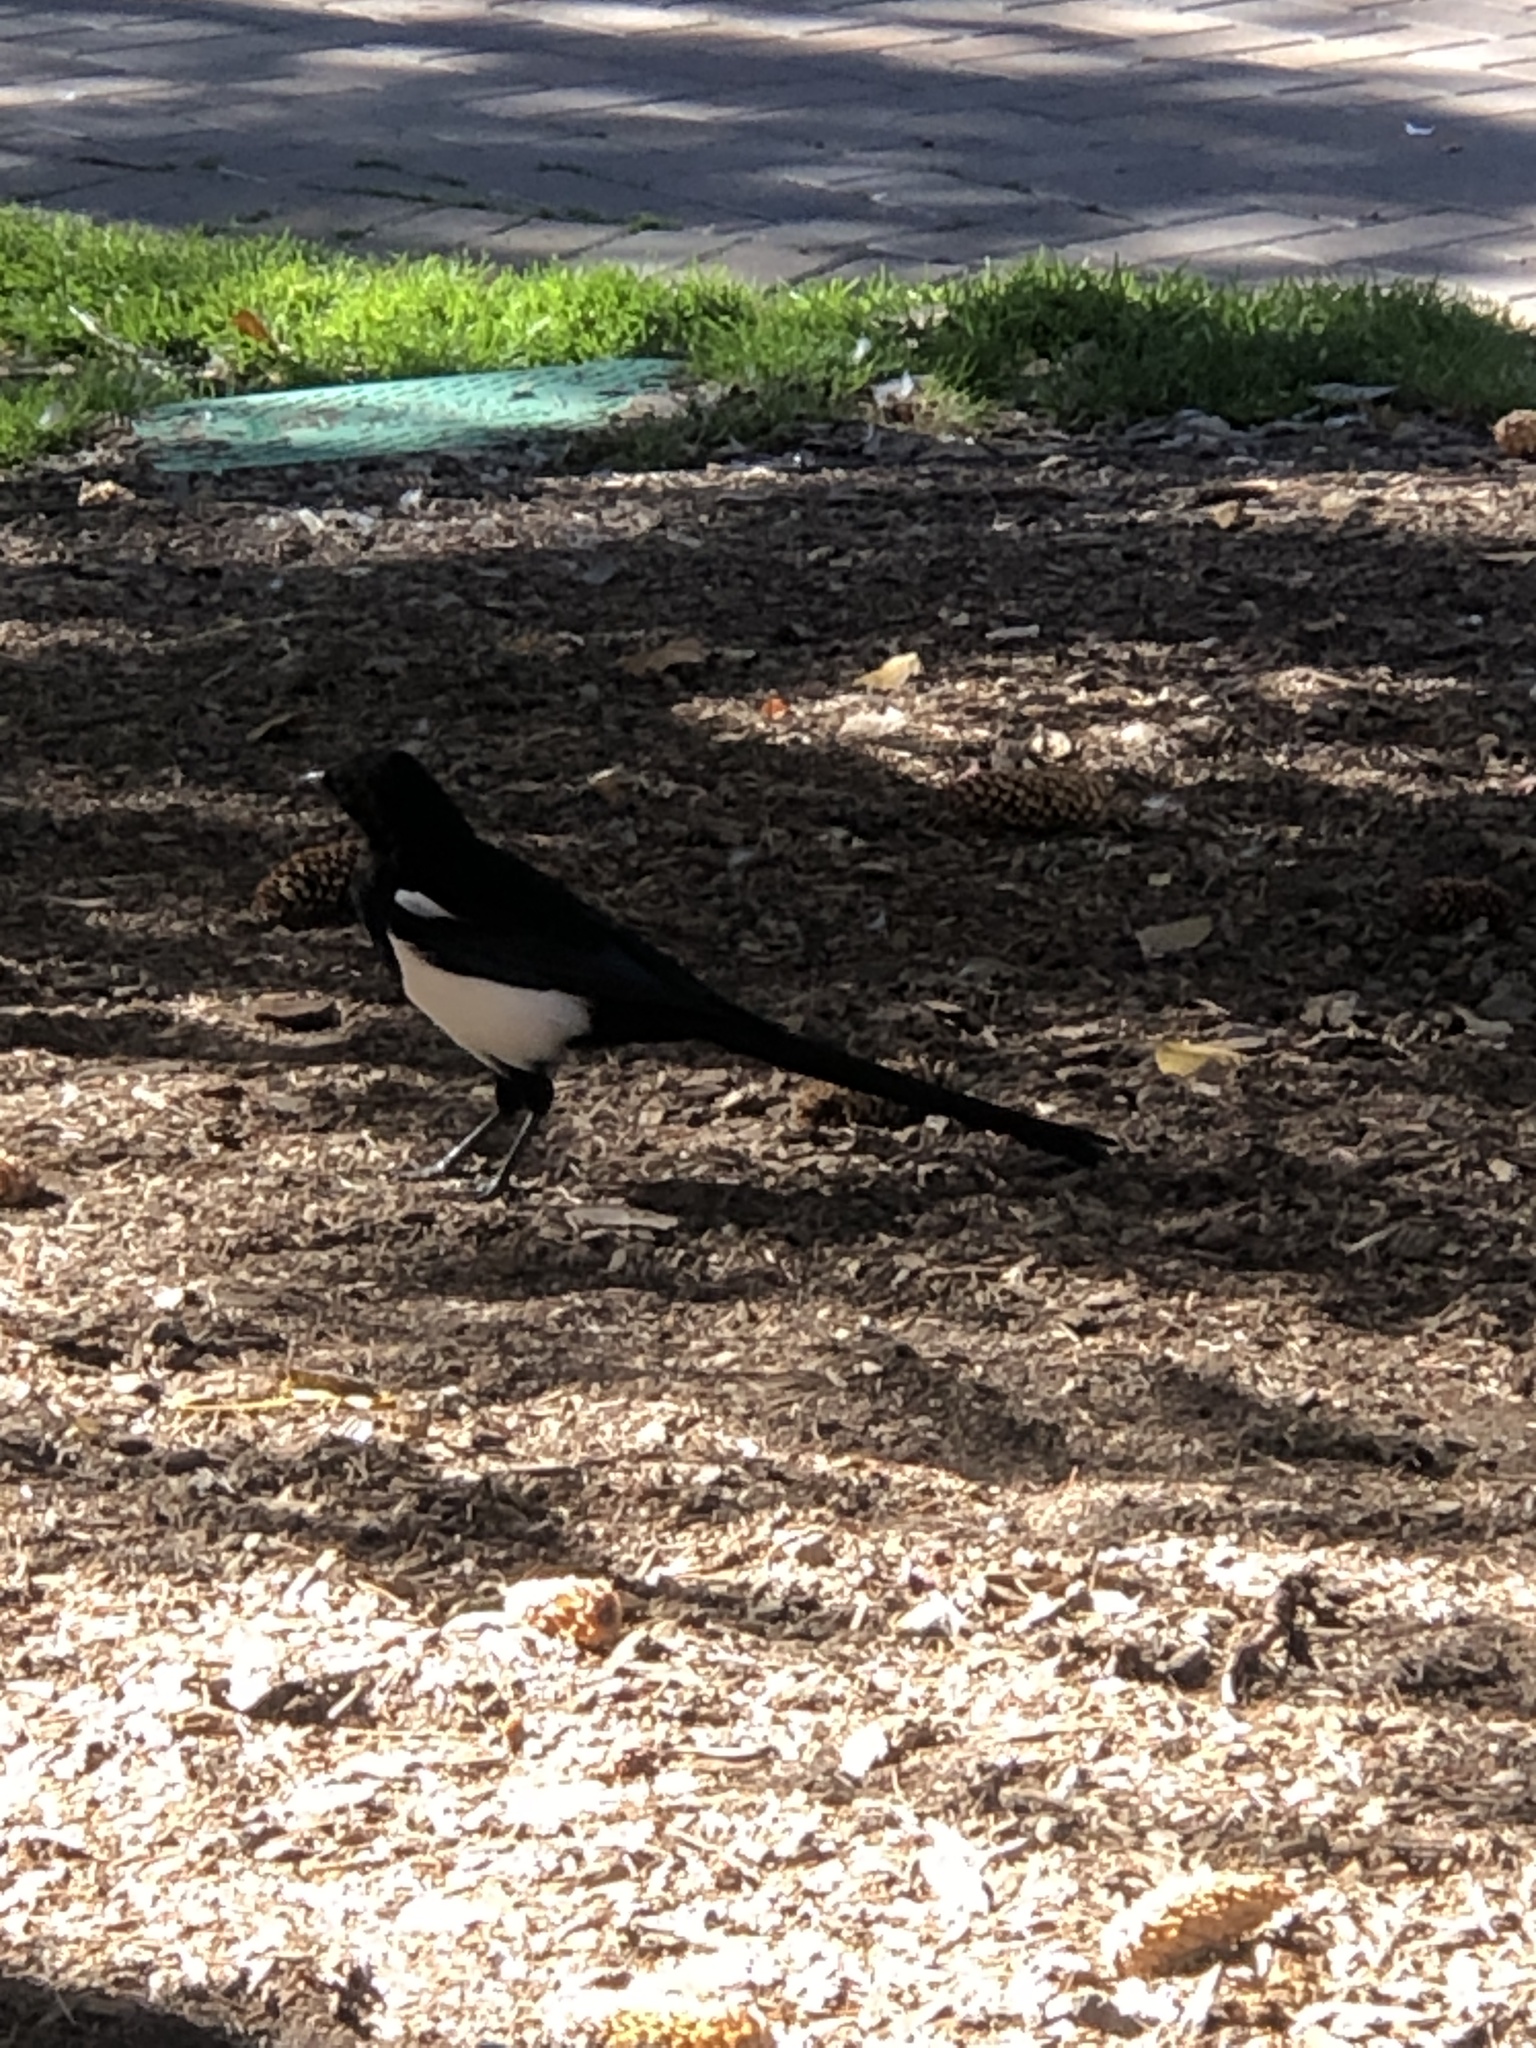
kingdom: Animalia
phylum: Chordata
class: Aves
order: Passeriformes
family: Corvidae
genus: Pica
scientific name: Pica hudsonia
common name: Black-billed magpie
